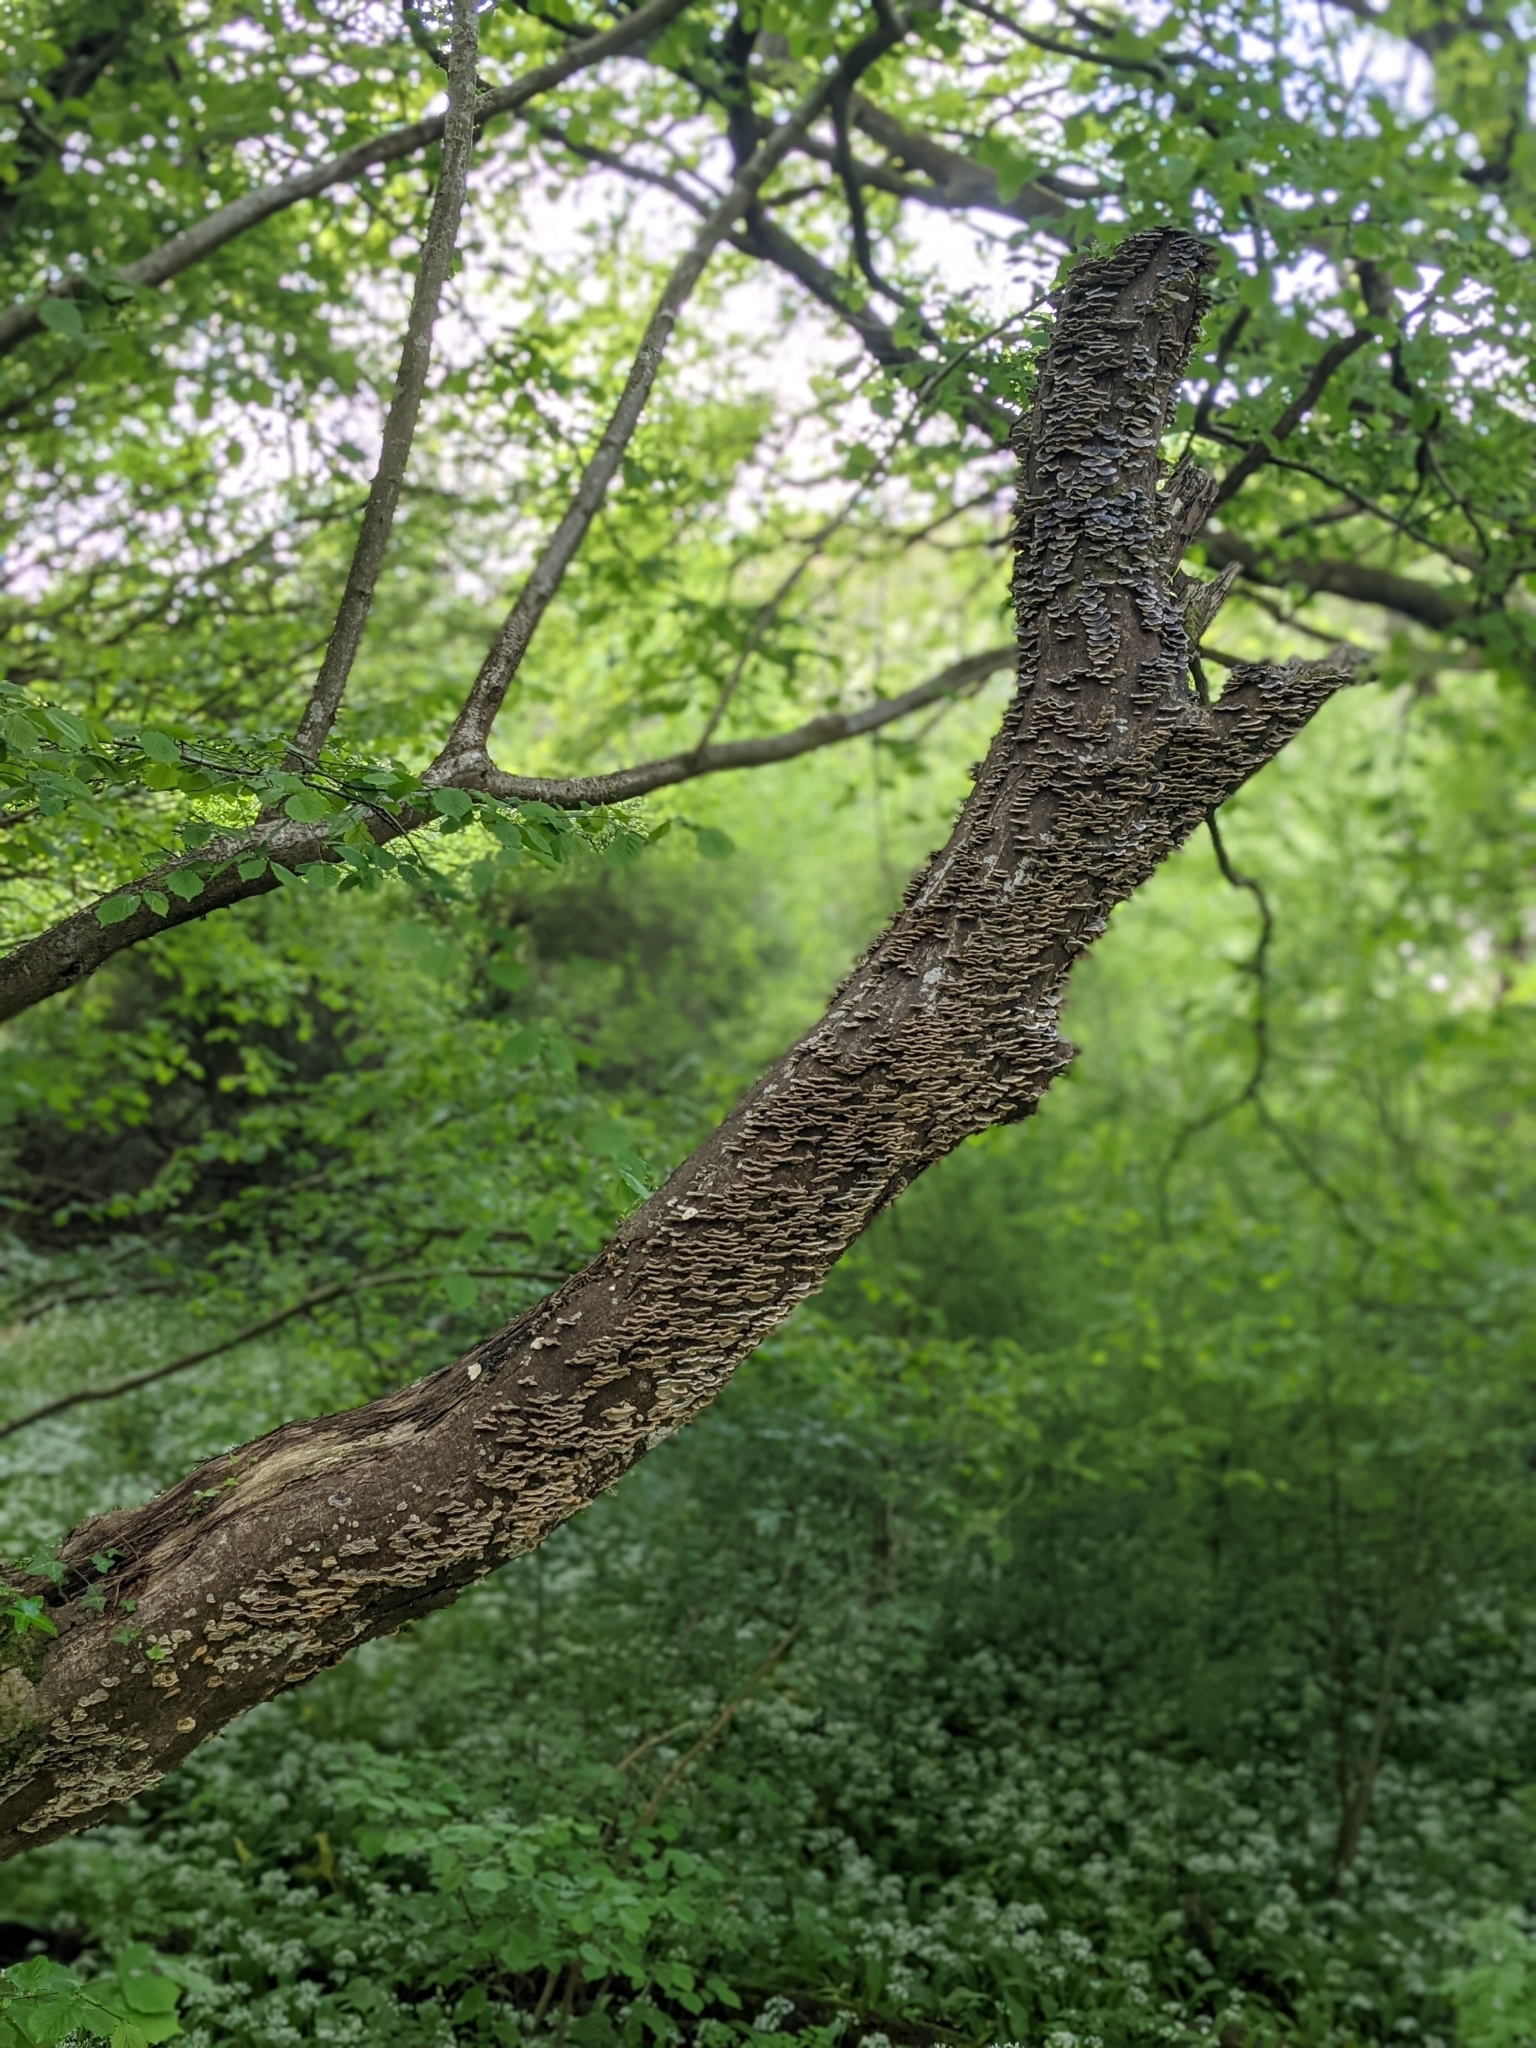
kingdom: Fungi
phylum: Basidiomycota
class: Agaricomycetes
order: Polyporales
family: Polyporaceae
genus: Trametes
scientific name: Trametes versicolor
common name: Turkeytail
